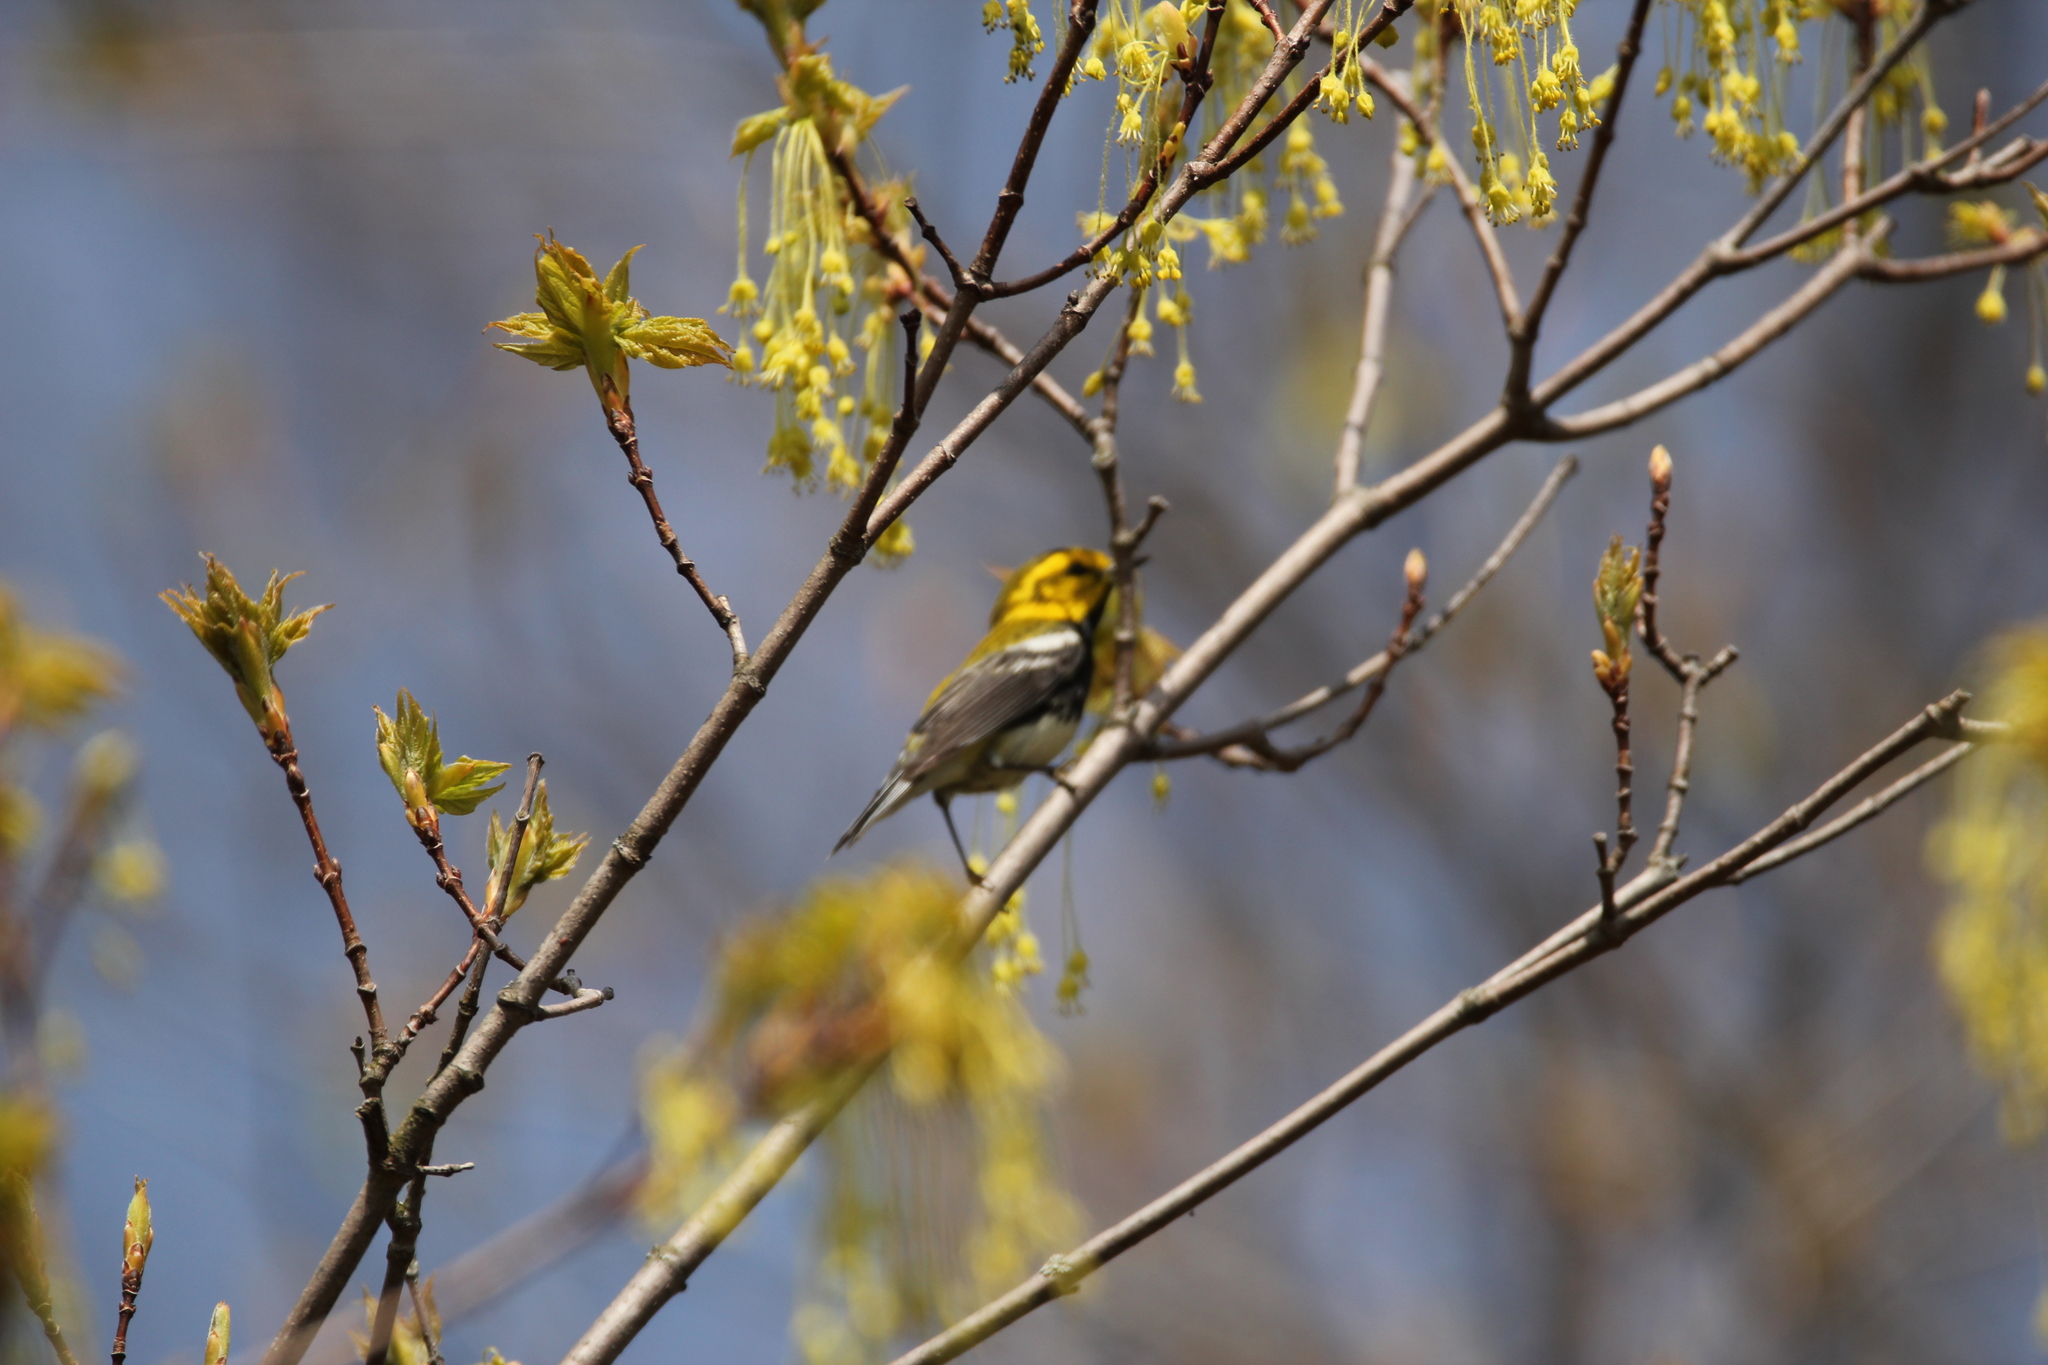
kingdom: Animalia
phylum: Chordata
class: Aves
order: Passeriformes
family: Parulidae
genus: Setophaga
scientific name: Setophaga virens
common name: Black-throated green warbler
